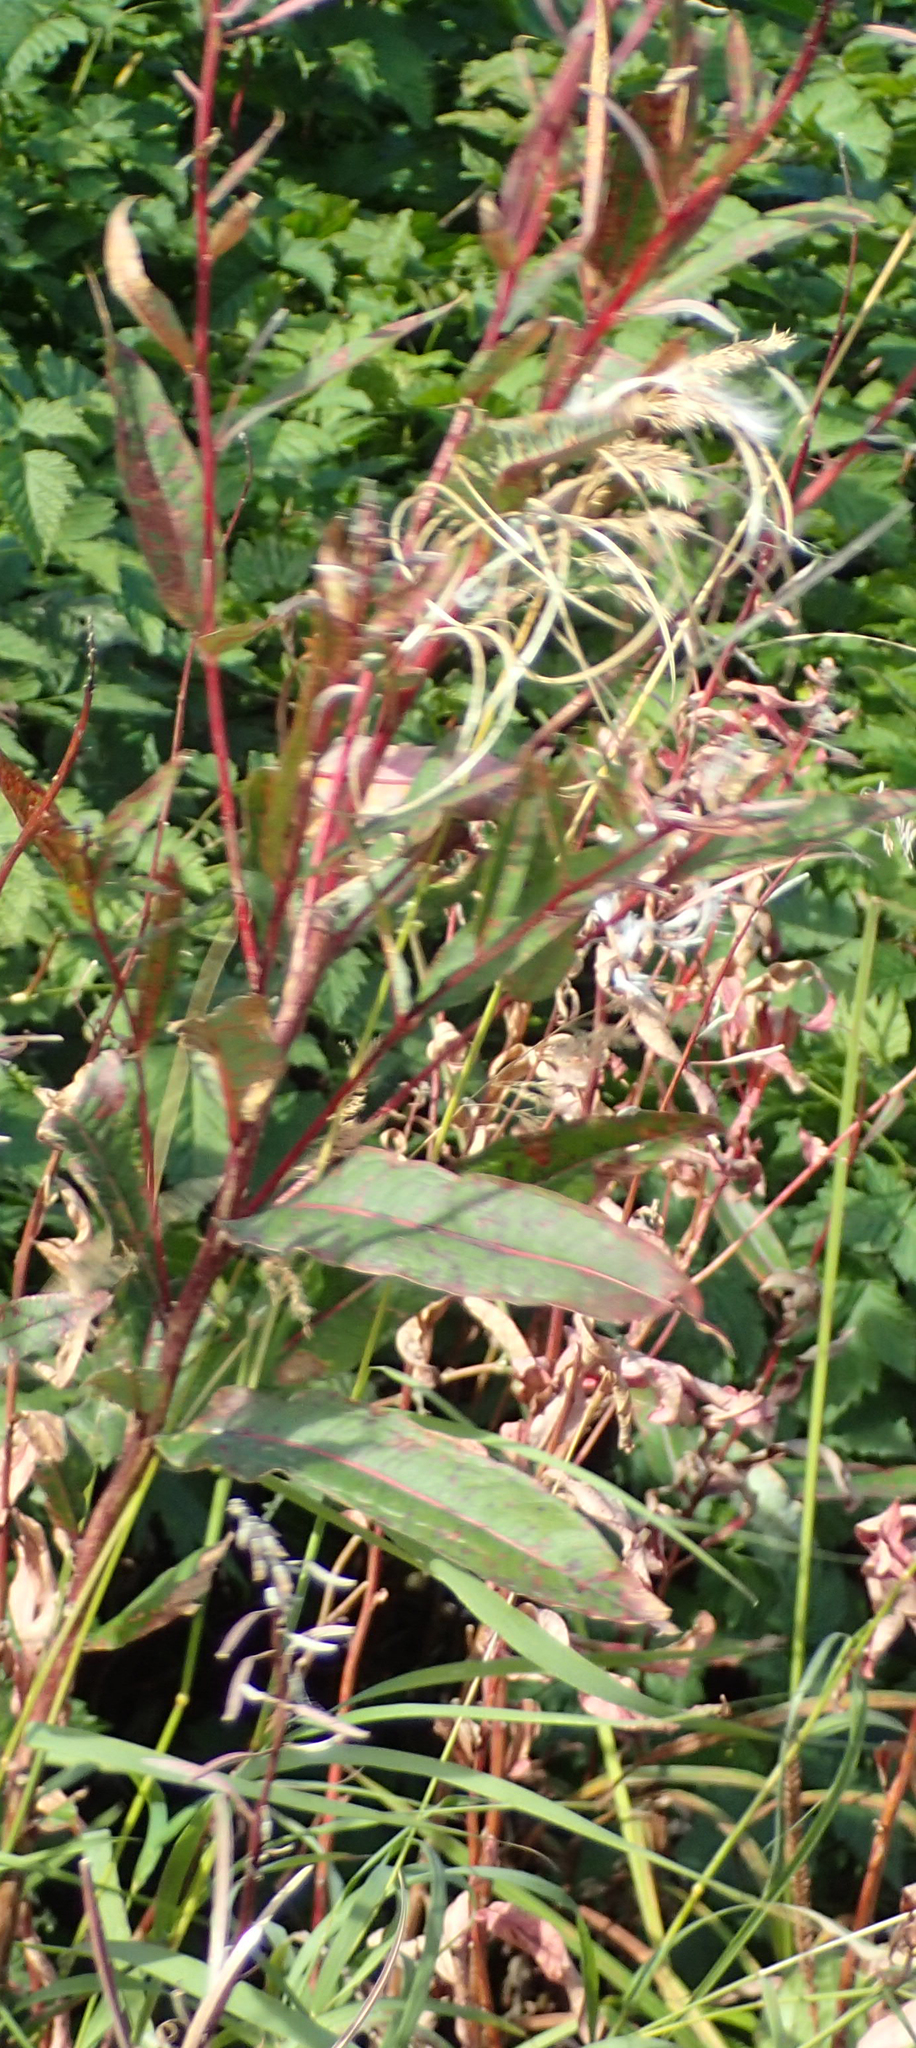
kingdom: Plantae
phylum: Tracheophyta
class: Magnoliopsida
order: Myrtales
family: Onagraceae
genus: Chamaenerion
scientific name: Chamaenerion angustifolium
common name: Fireweed
